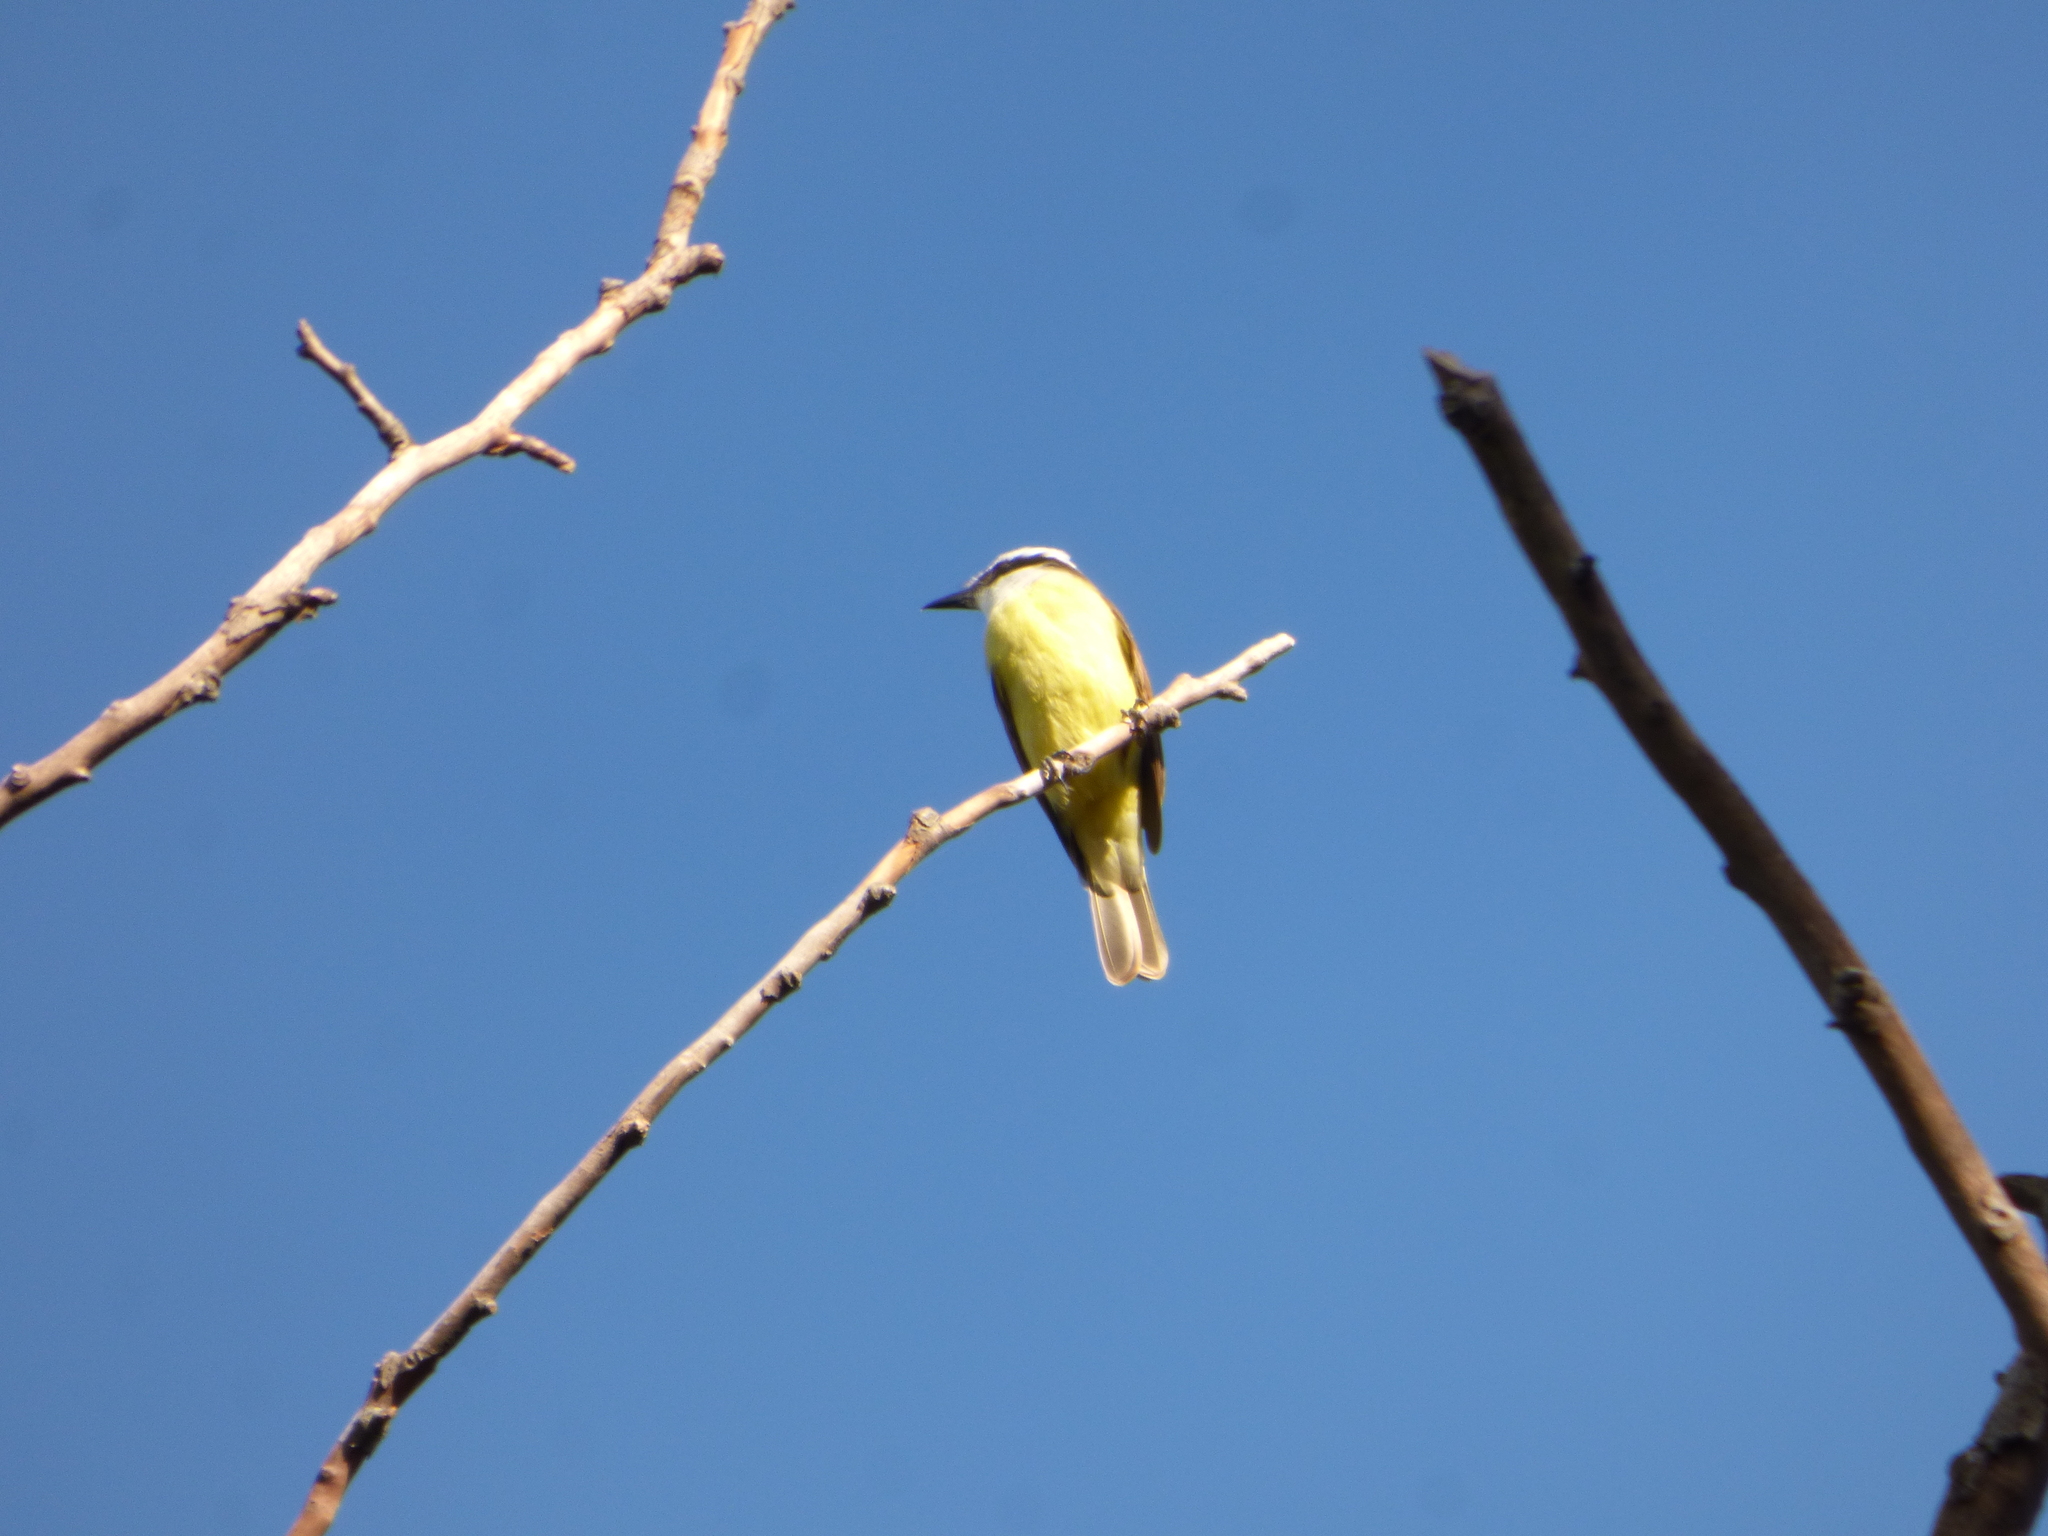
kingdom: Animalia
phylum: Chordata
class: Aves
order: Passeriformes
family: Tyrannidae
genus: Pitangus
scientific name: Pitangus sulphuratus
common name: Great kiskadee
